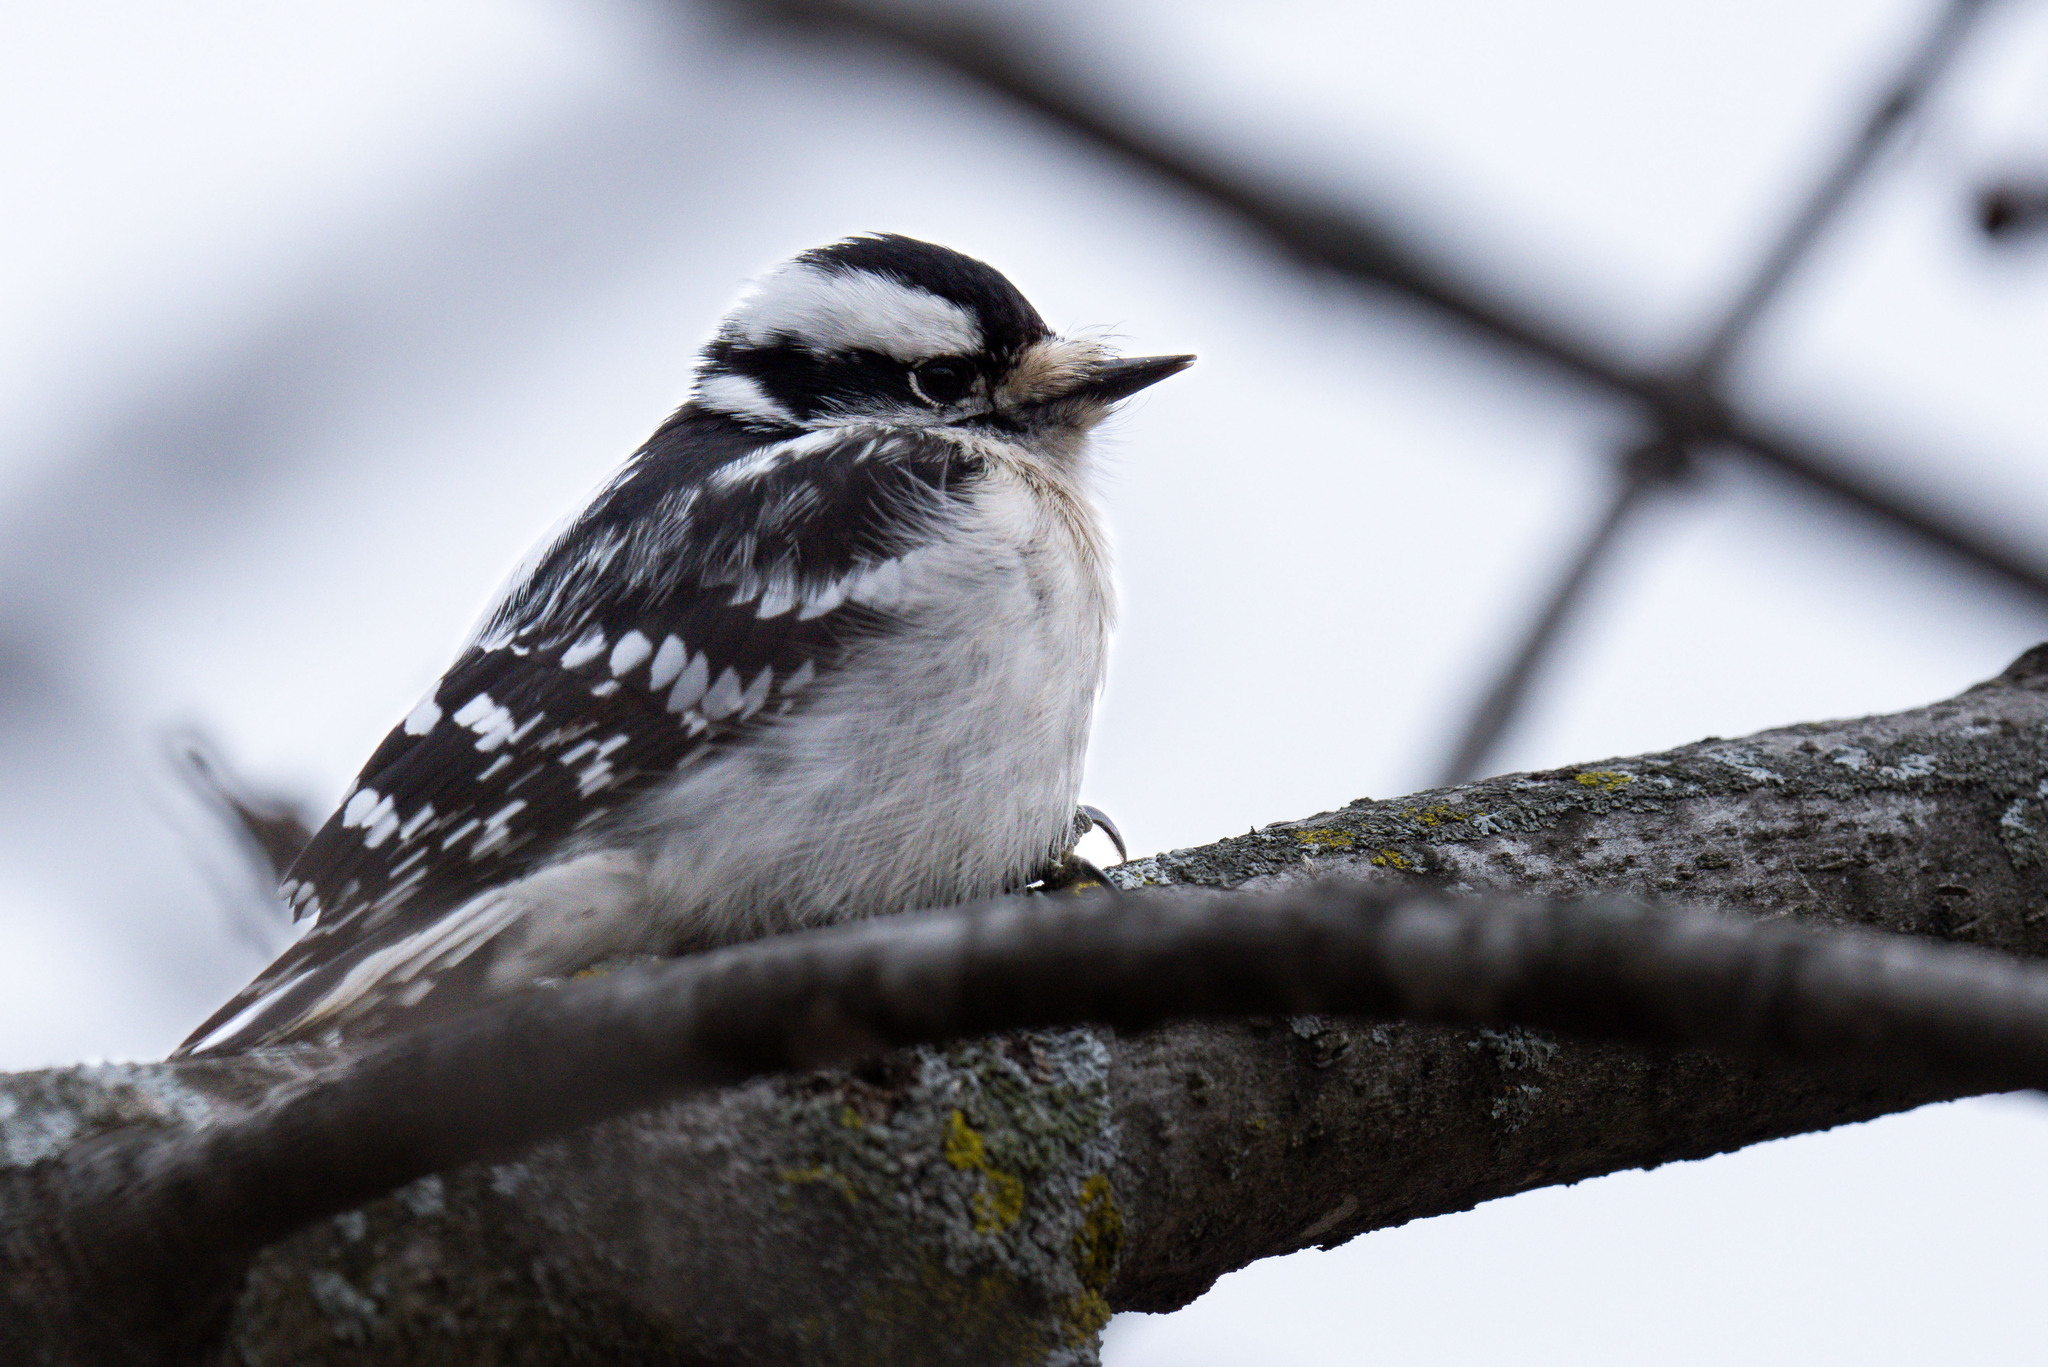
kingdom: Animalia
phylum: Chordata
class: Aves
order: Piciformes
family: Picidae
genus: Dryobates
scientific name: Dryobates pubescens
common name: Downy woodpecker
